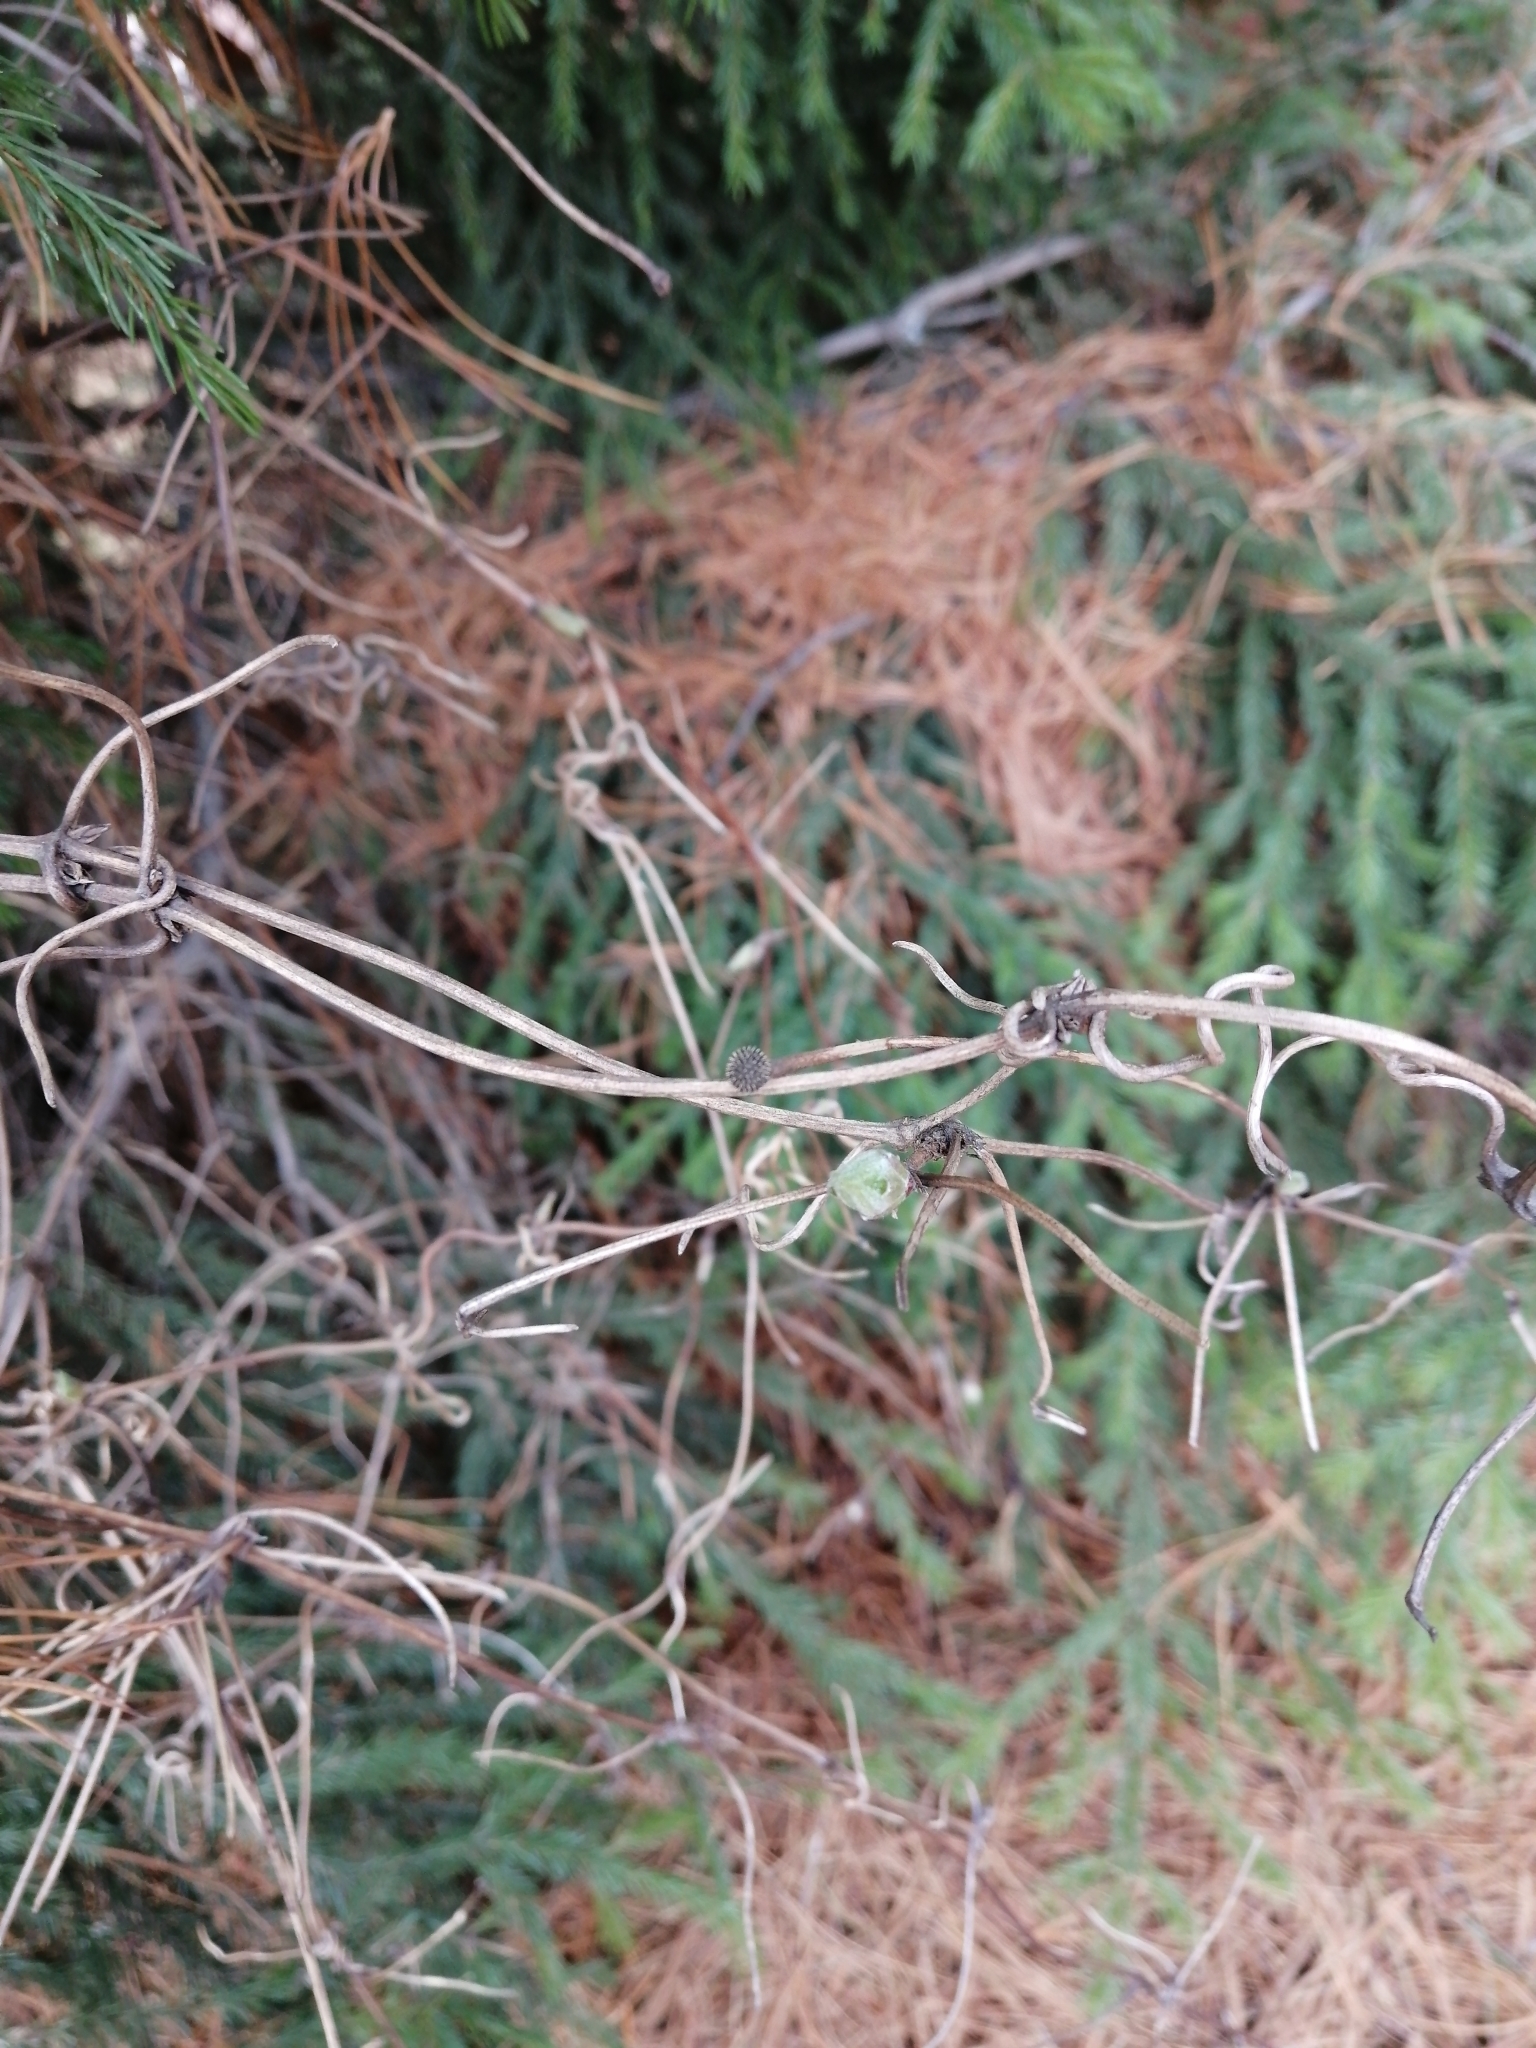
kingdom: Plantae
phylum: Tracheophyta
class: Magnoliopsida
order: Ranunculales
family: Ranunculaceae
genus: Clematis
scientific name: Clematis sibirica
